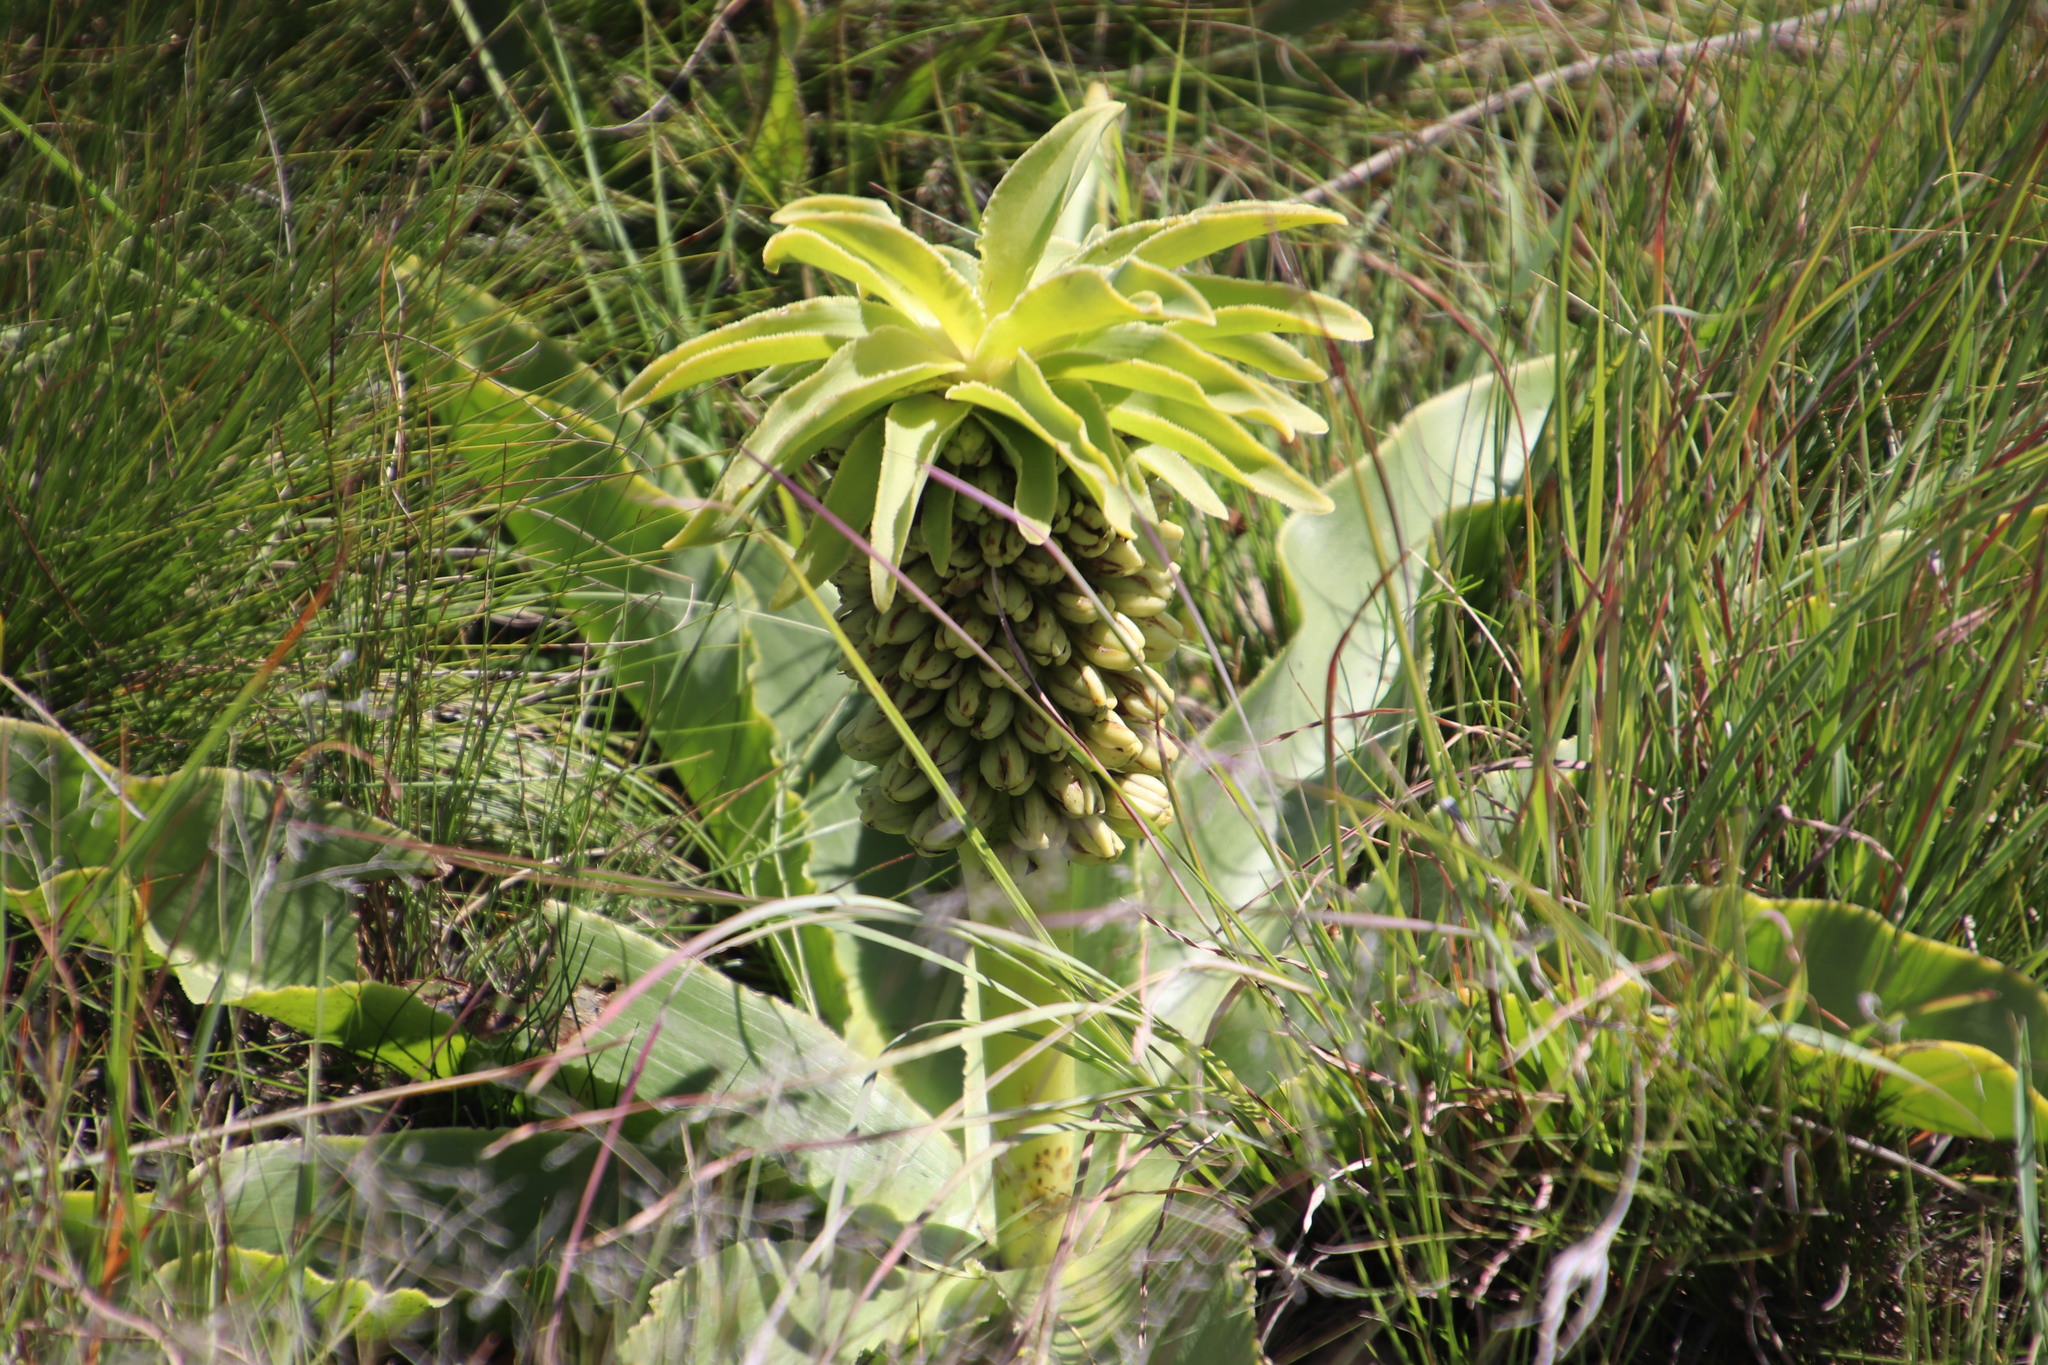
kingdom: Plantae
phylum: Tracheophyta
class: Liliopsida
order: Asparagales
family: Asparagaceae
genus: Eucomis
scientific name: Eucomis autumnalis
